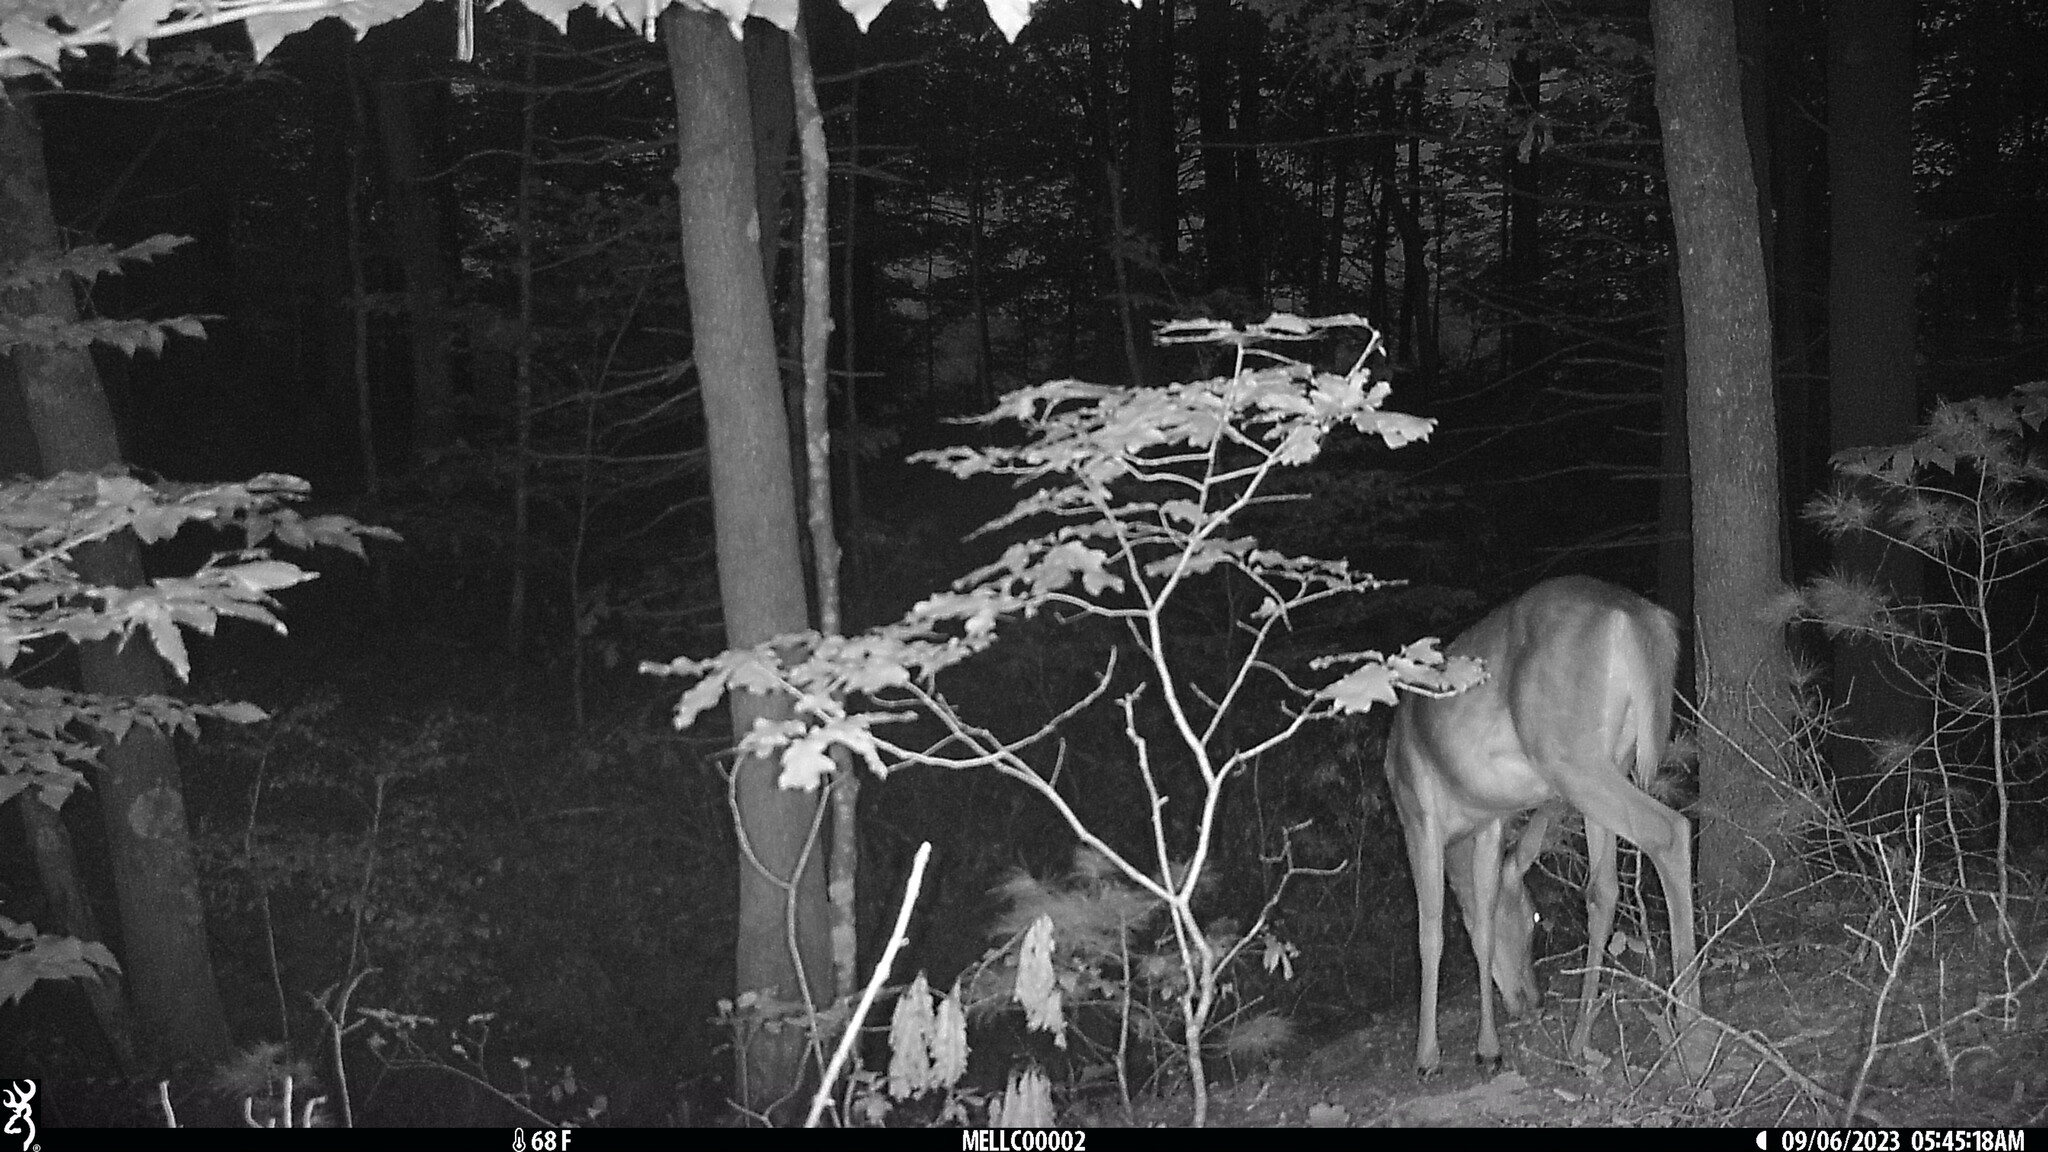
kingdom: Animalia
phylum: Chordata
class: Mammalia
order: Artiodactyla
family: Cervidae
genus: Odocoileus
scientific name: Odocoileus virginianus
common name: White-tailed deer
